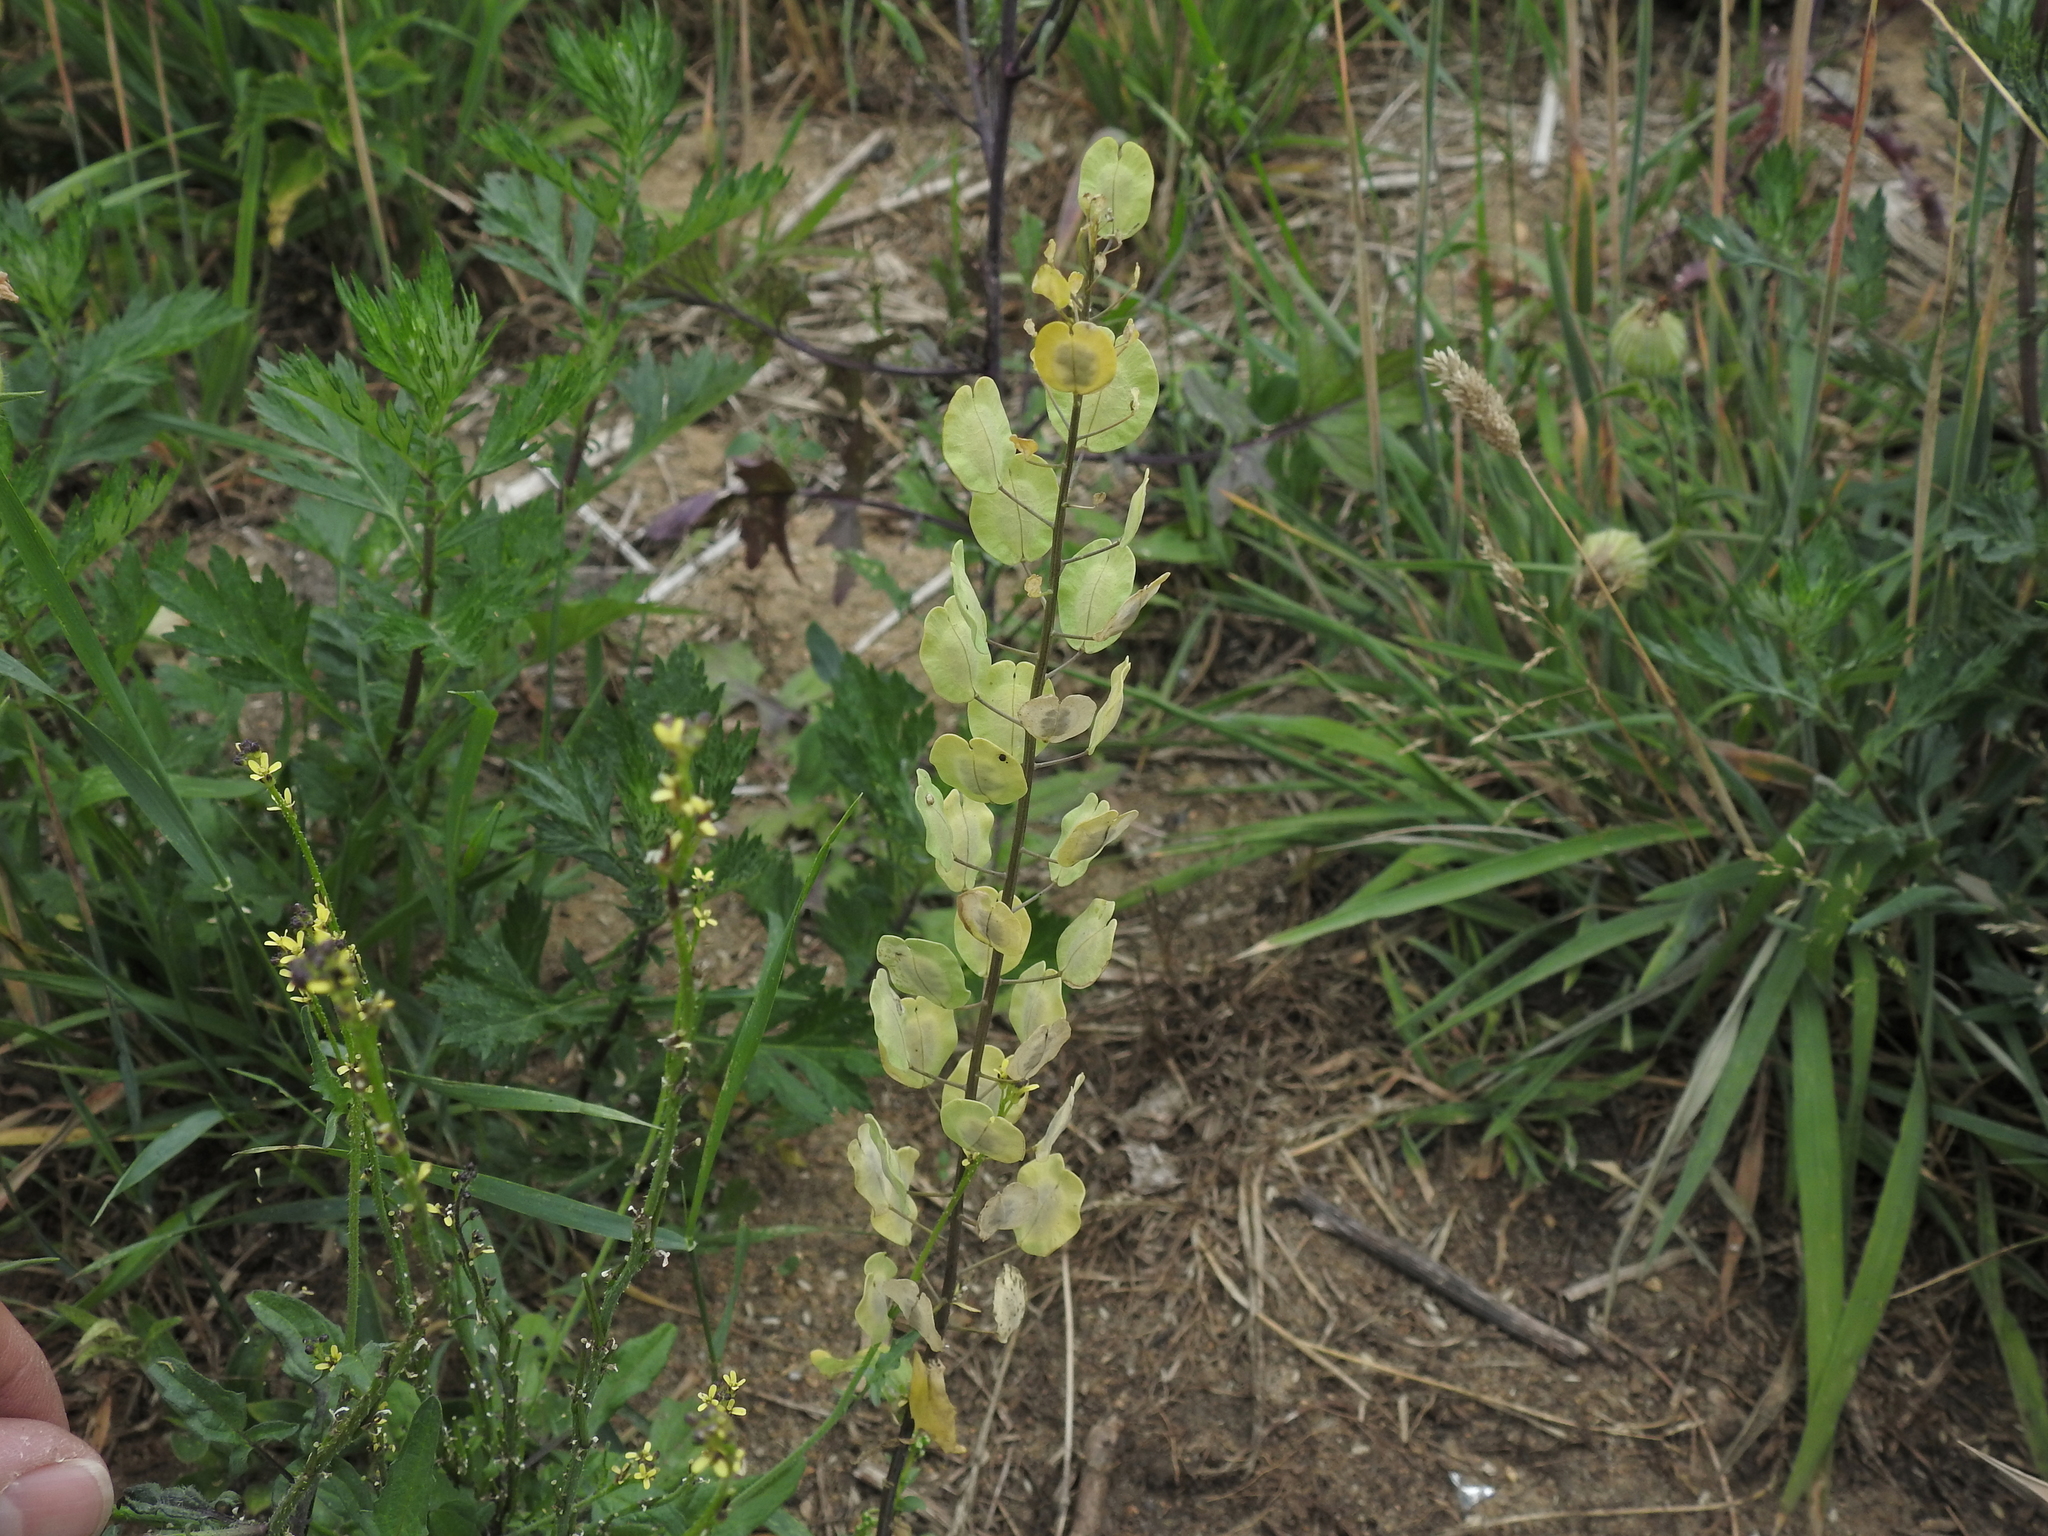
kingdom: Plantae
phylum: Tracheophyta
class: Magnoliopsida
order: Brassicales
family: Brassicaceae
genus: Thlaspi
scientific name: Thlaspi arvense
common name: Field pennycress
